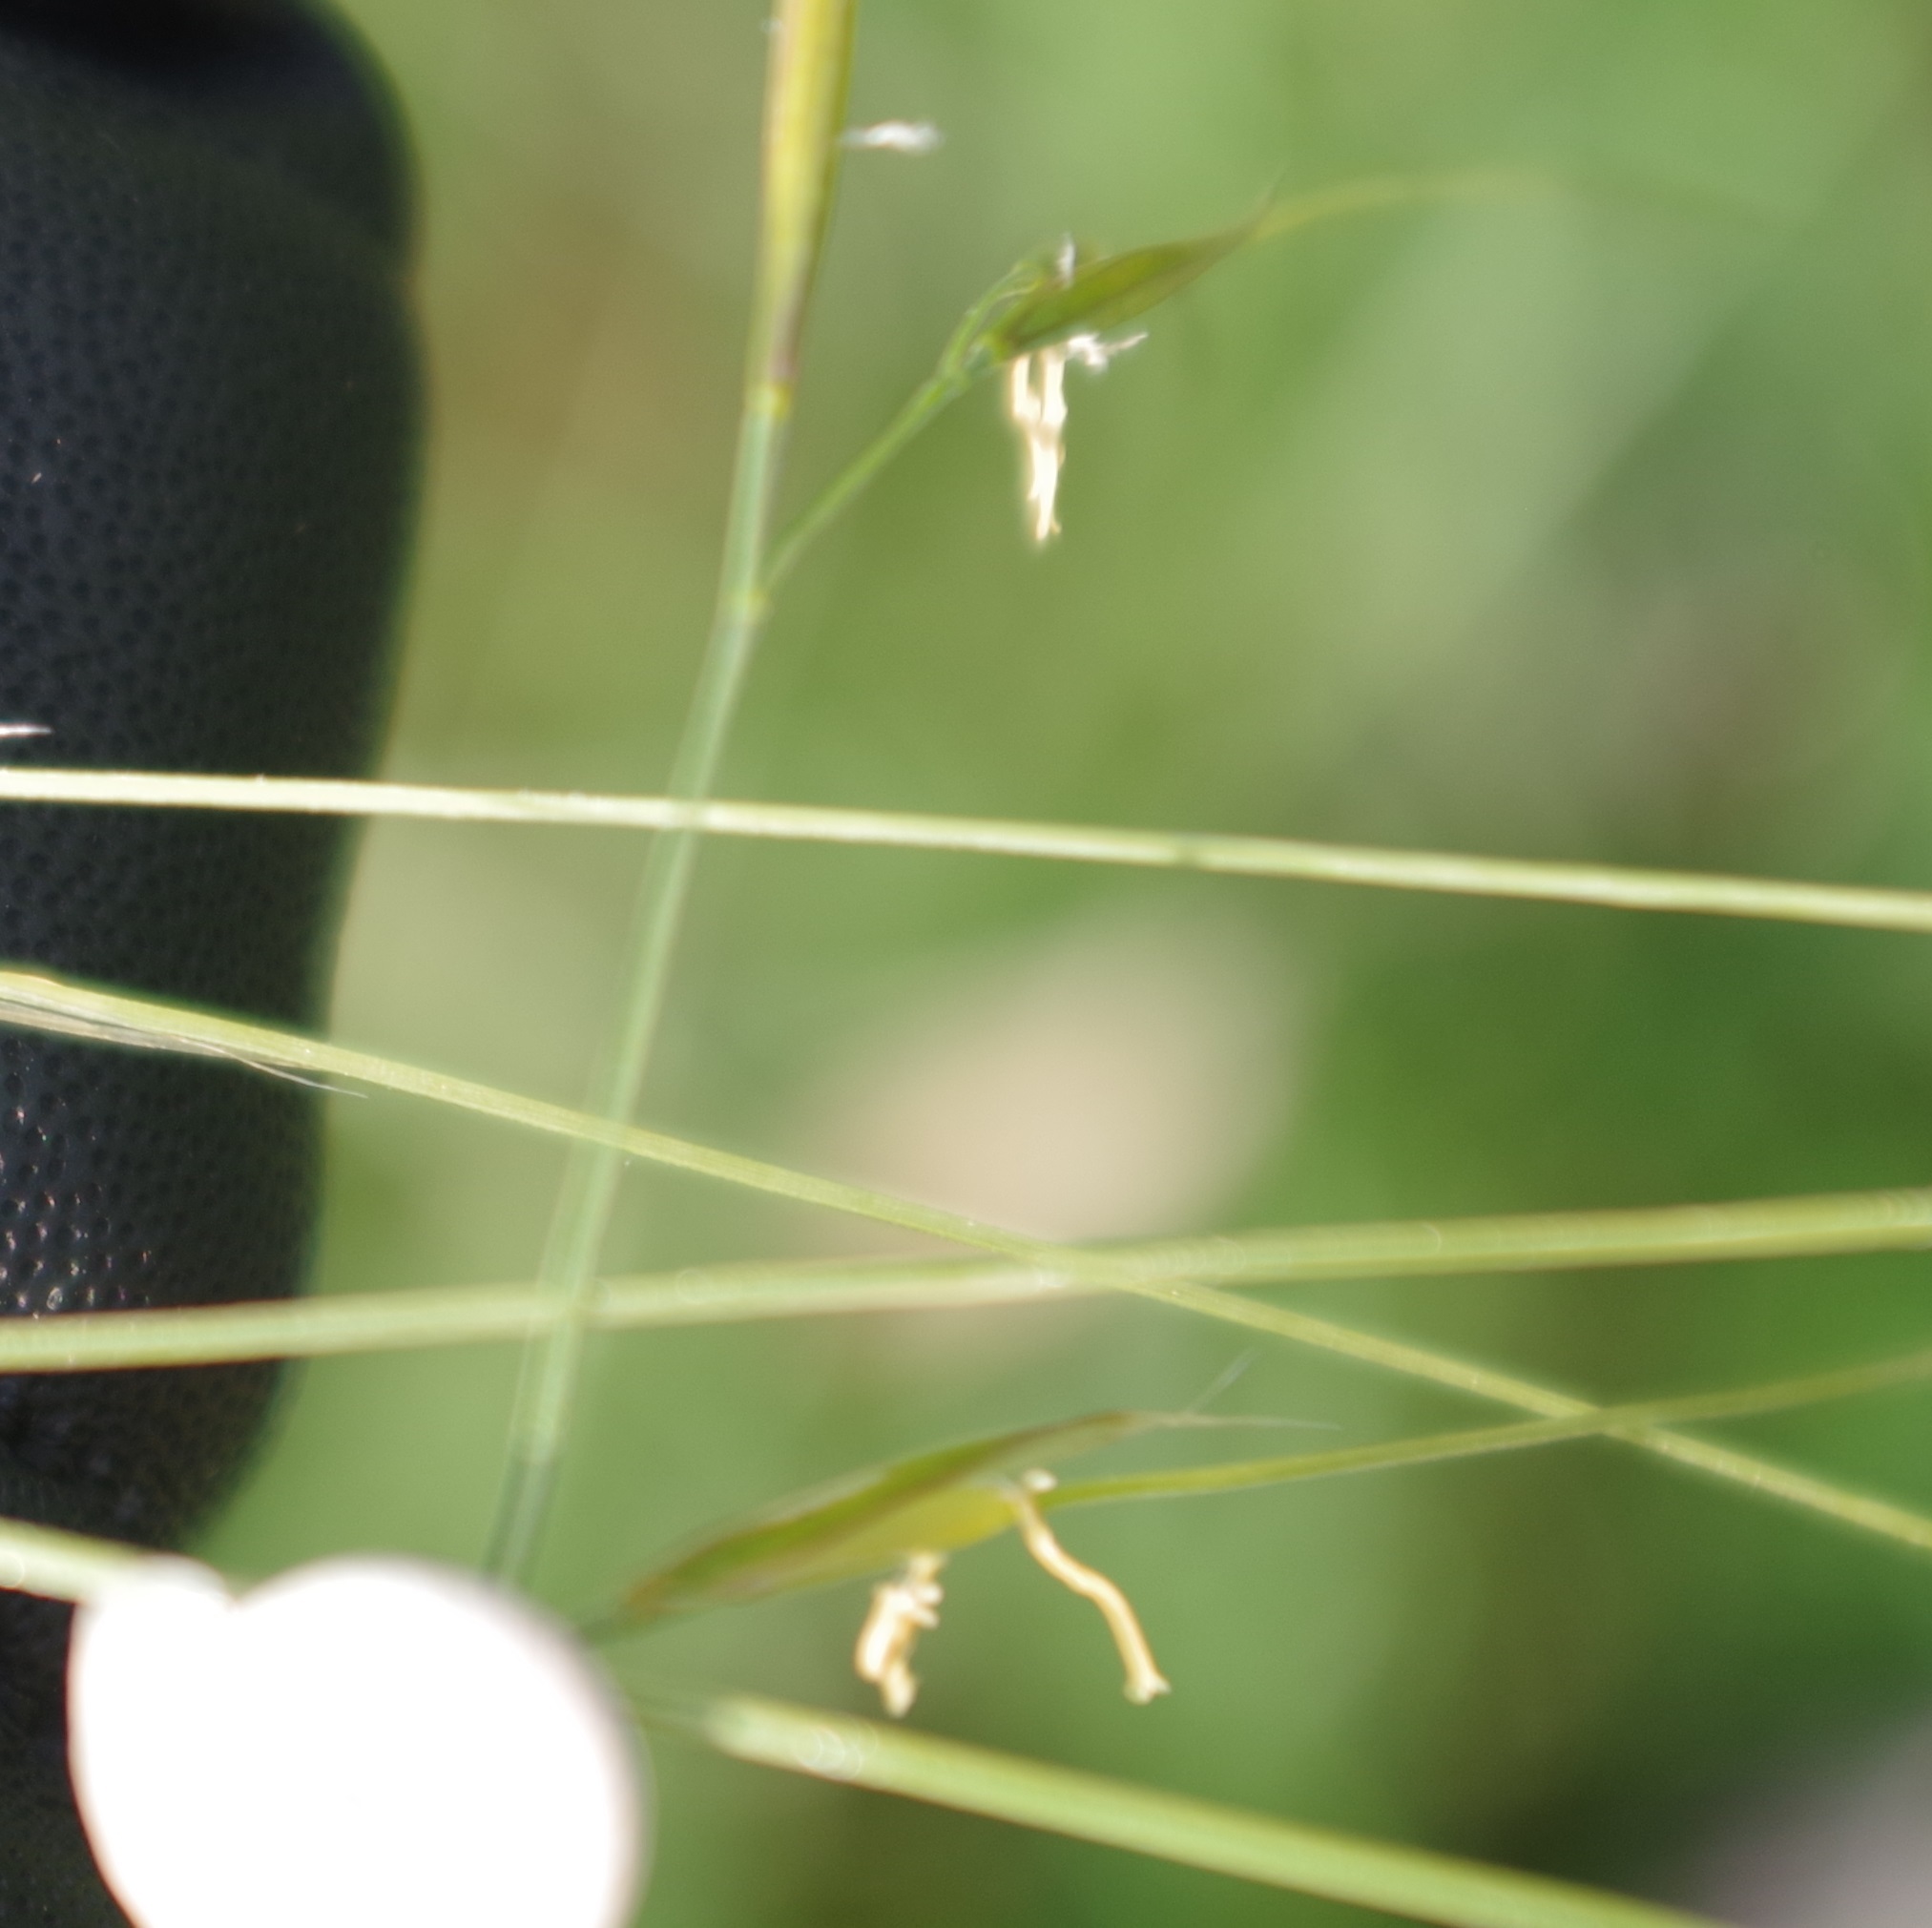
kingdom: Plantae
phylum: Tracheophyta
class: Liliopsida
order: Poales
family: Poaceae
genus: Stipa
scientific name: Stipa capillata
